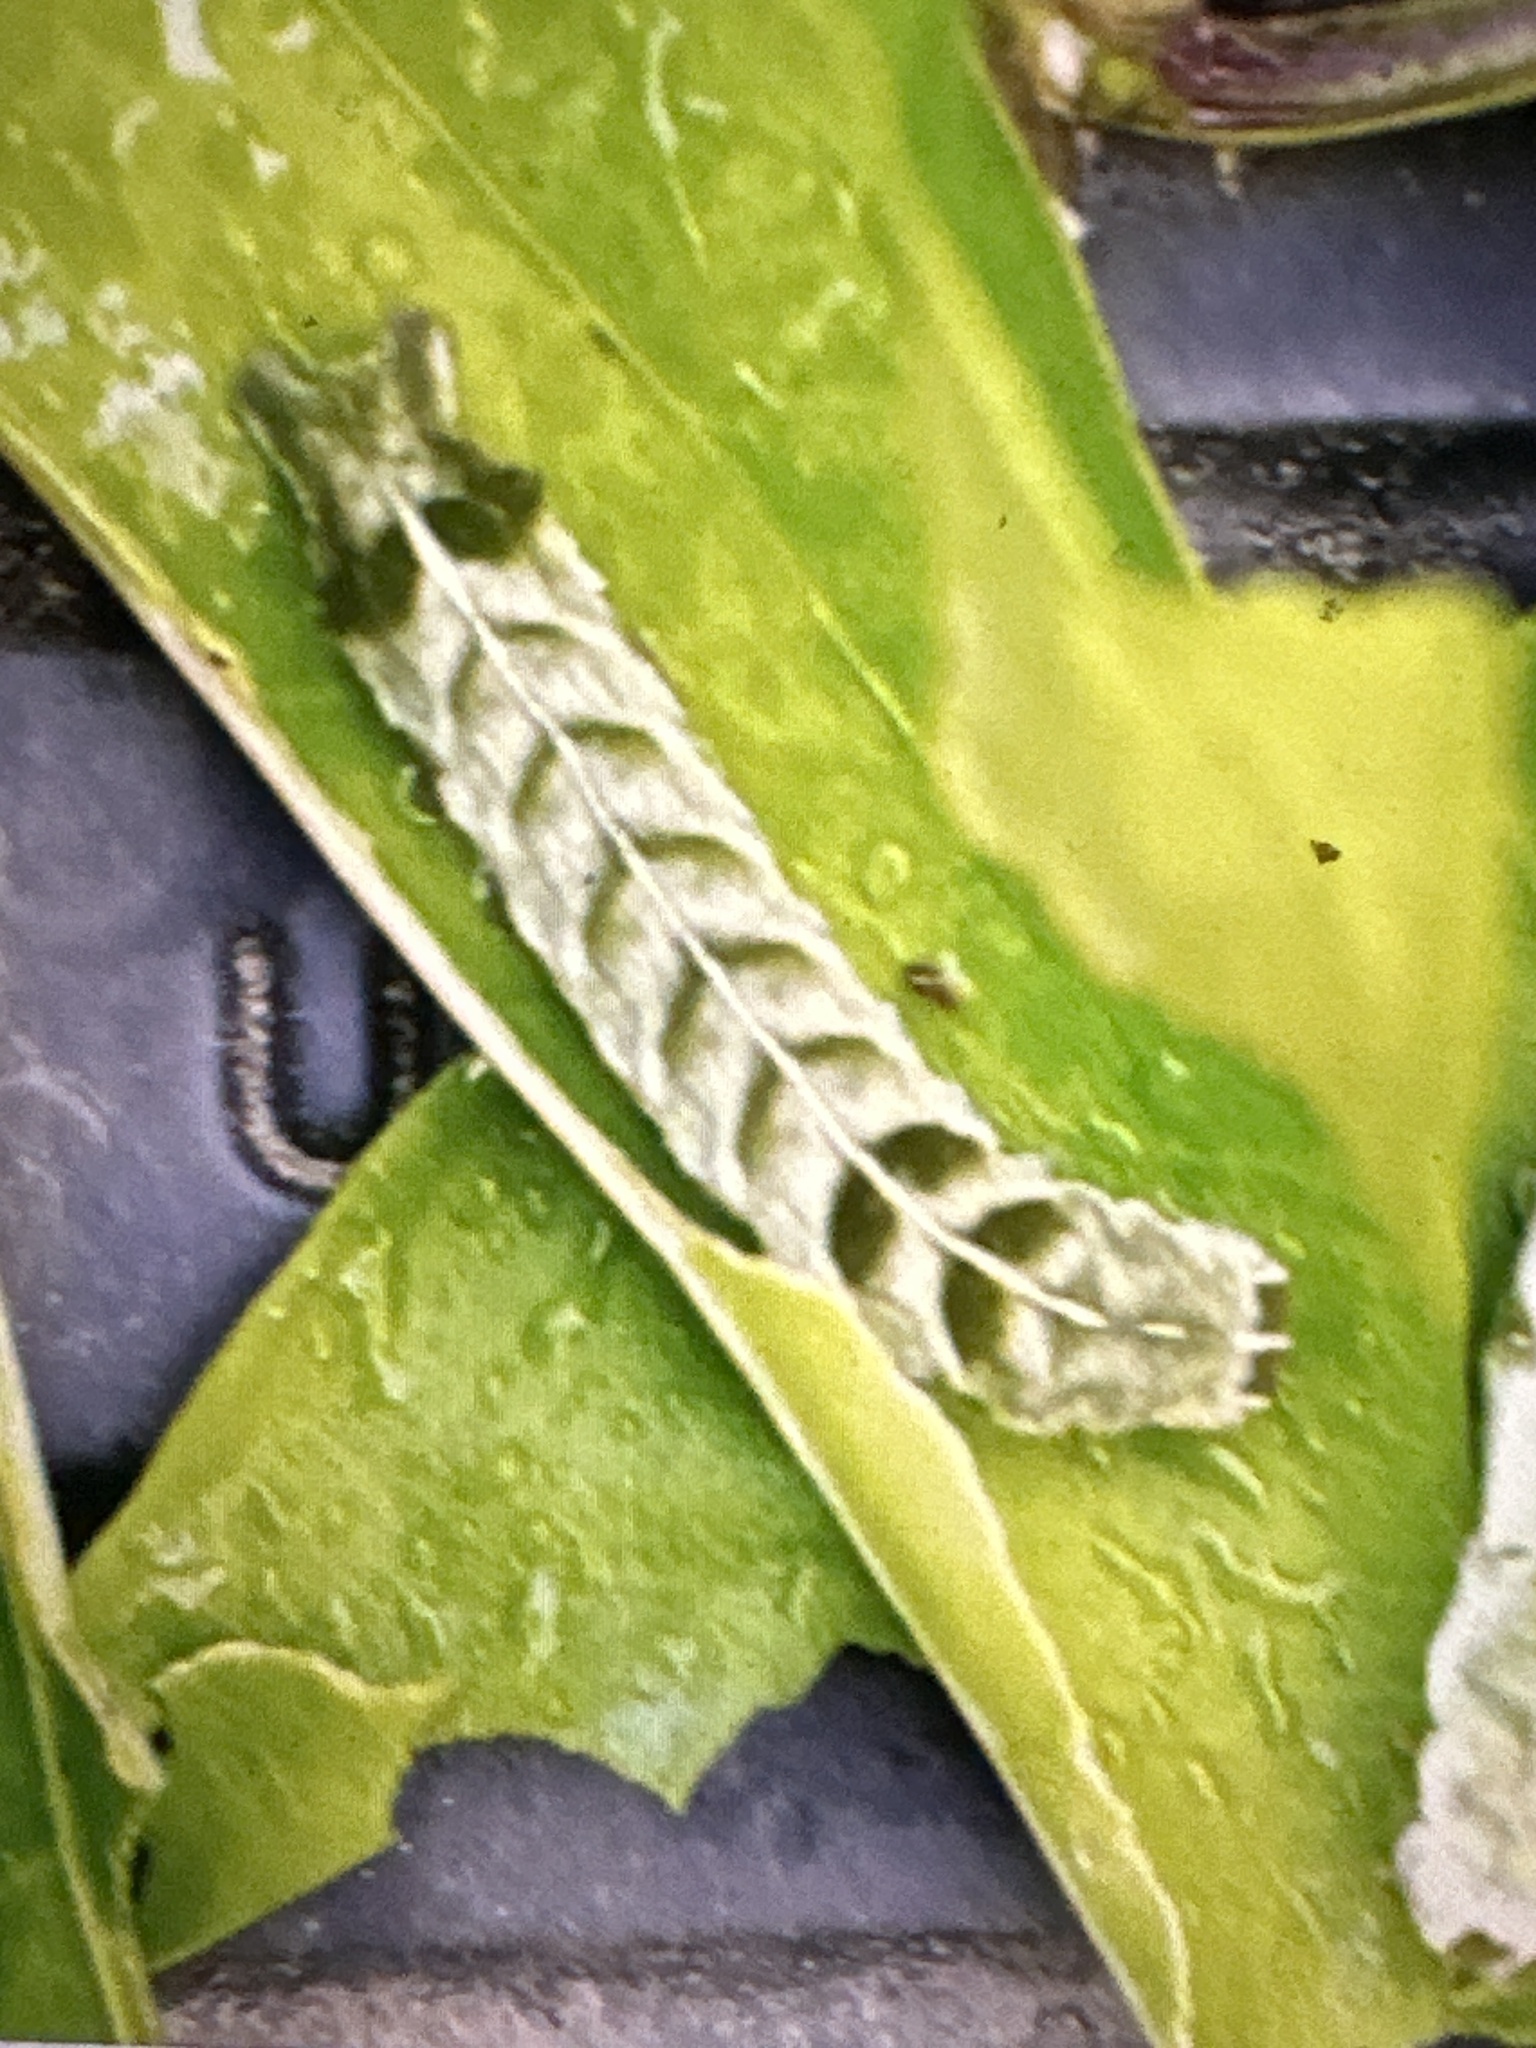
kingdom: Animalia
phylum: Arthropoda
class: Insecta
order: Lepidoptera
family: Noctuidae
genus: Melanchra
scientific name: Melanchra persicariae
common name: Dot moth
